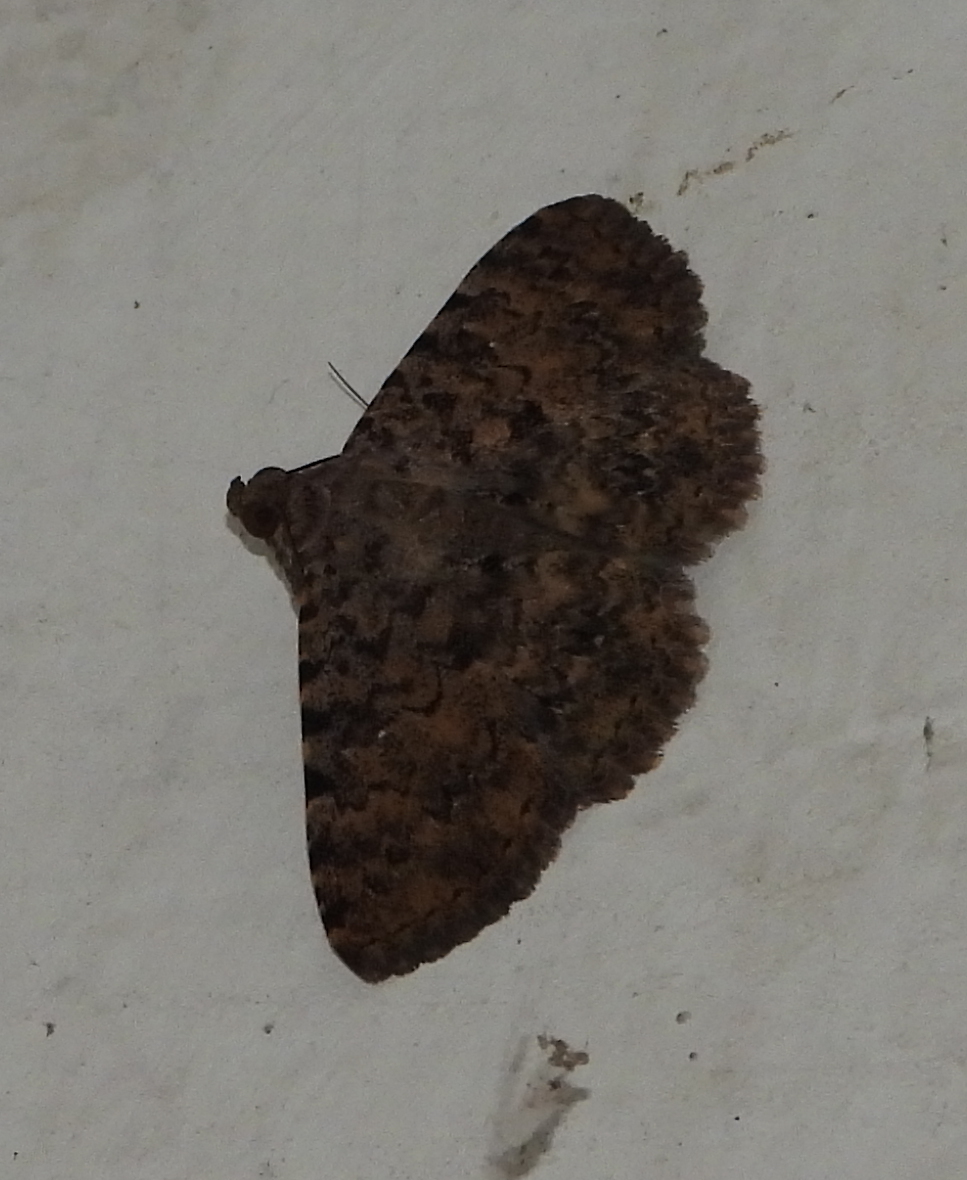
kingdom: Animalia
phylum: Arthropoda
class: Insecta
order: Lepidoptera
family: Erebidae
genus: Polydesma
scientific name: Polydesma umbricola
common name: Monkeypod moth
